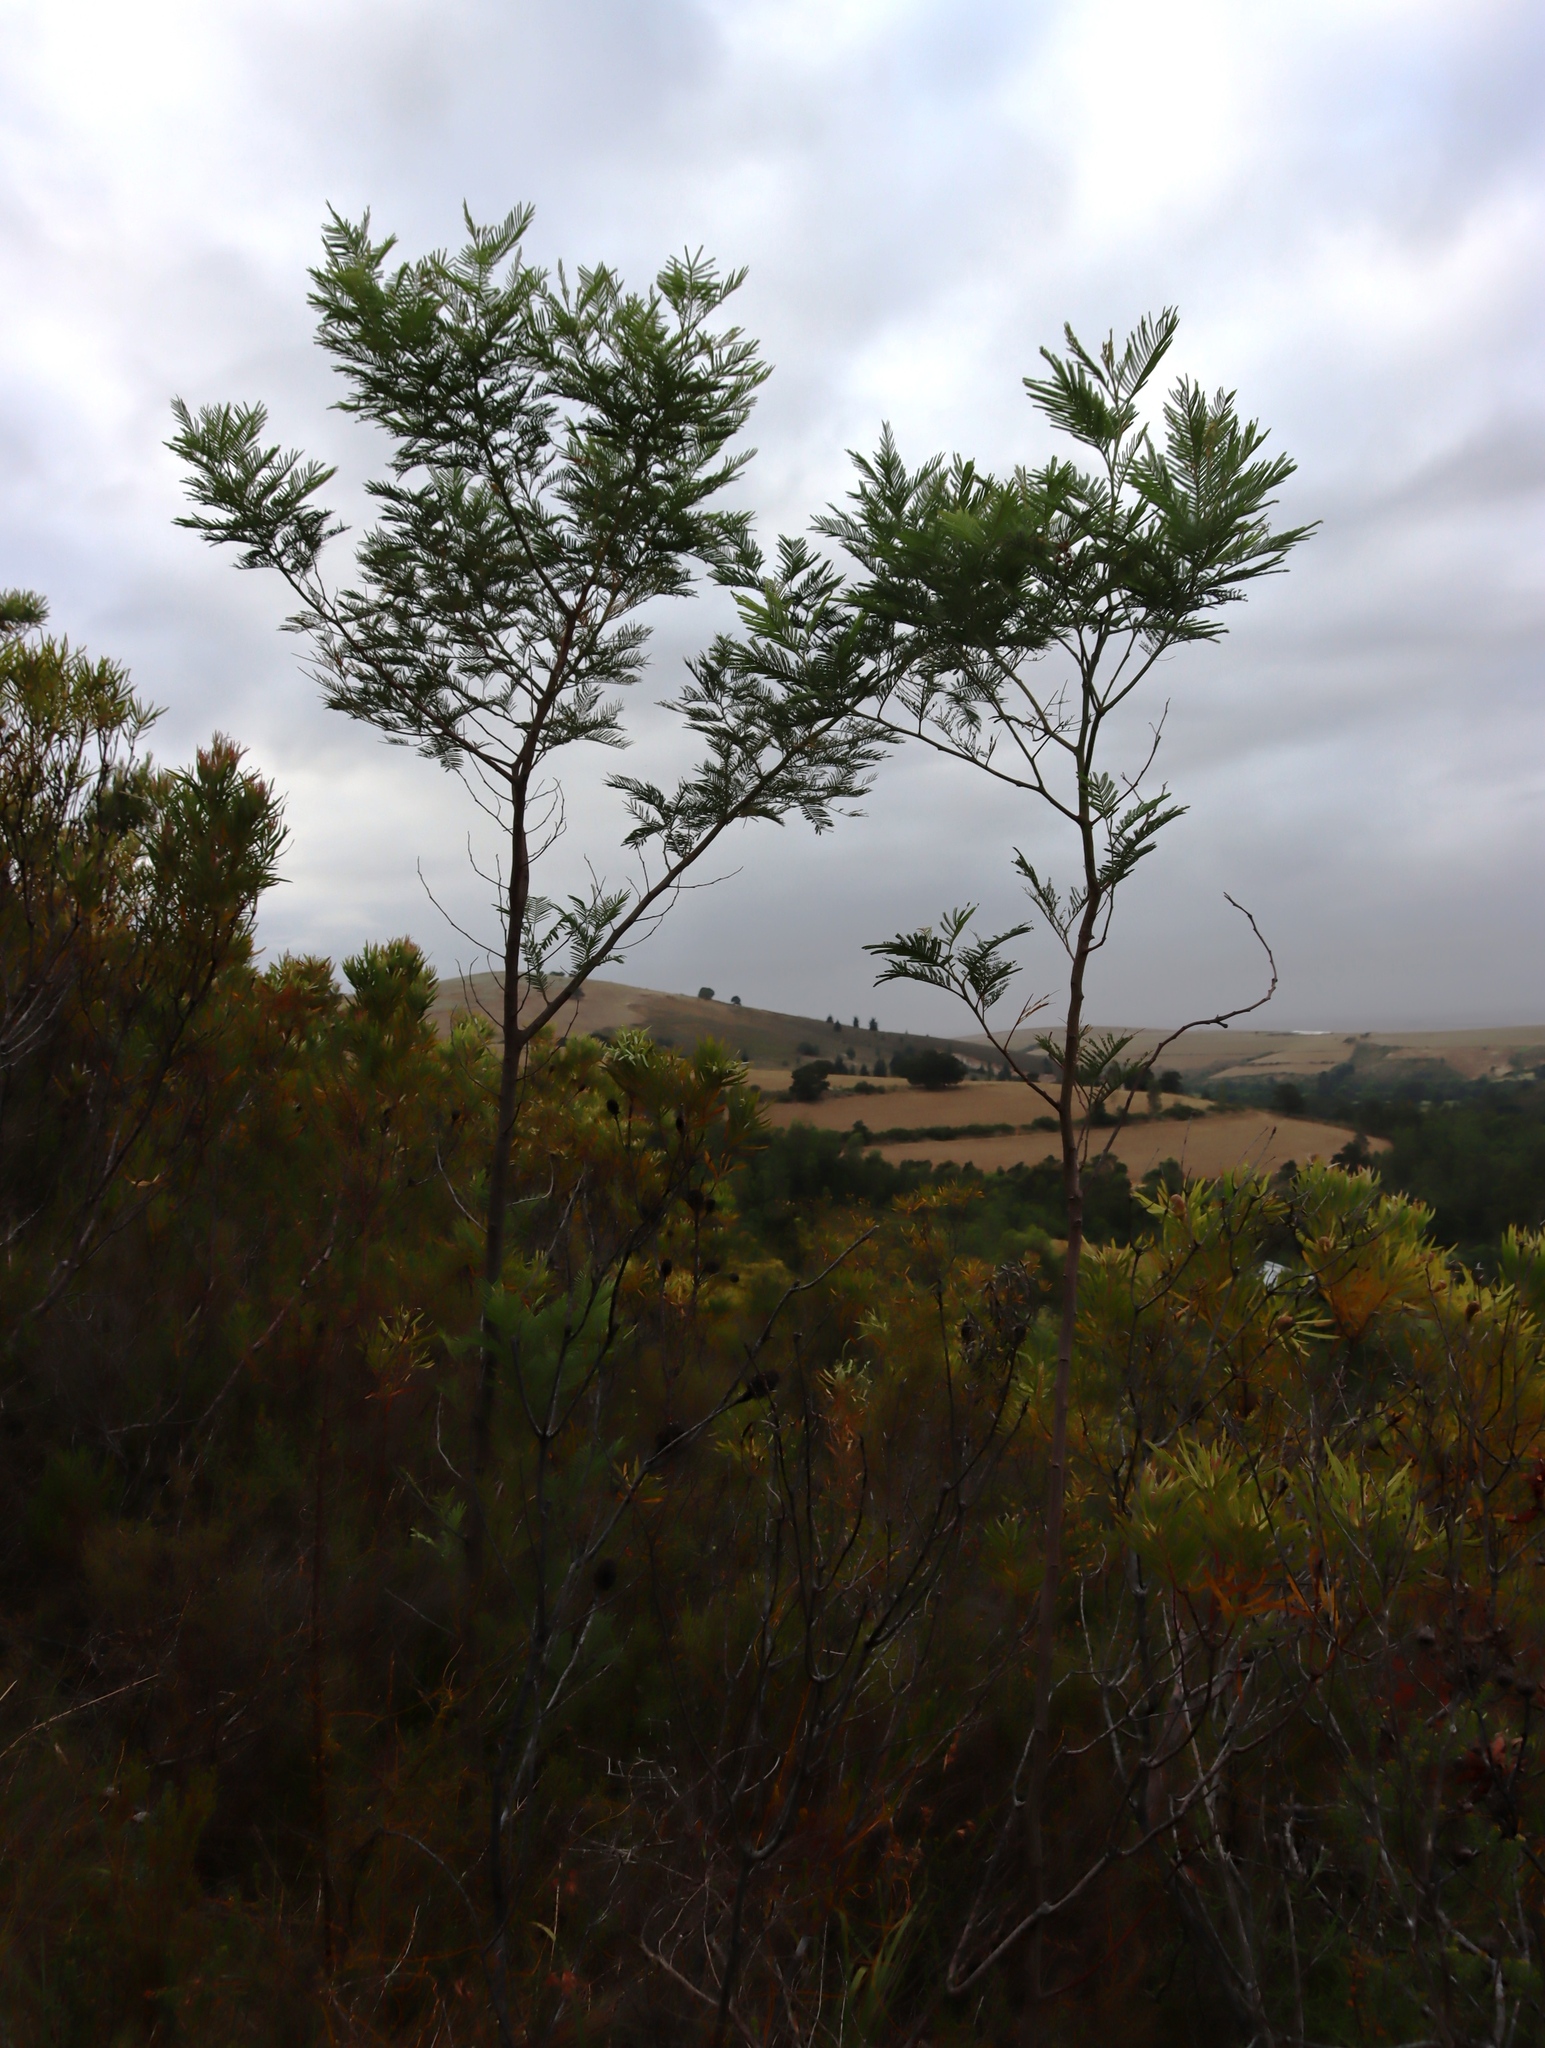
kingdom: Plantae
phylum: Tracheophyta
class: Magnoliopsida
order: Fabales
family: Fabaceae
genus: Acacia
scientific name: Acacia mearnsii
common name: Black wattle
